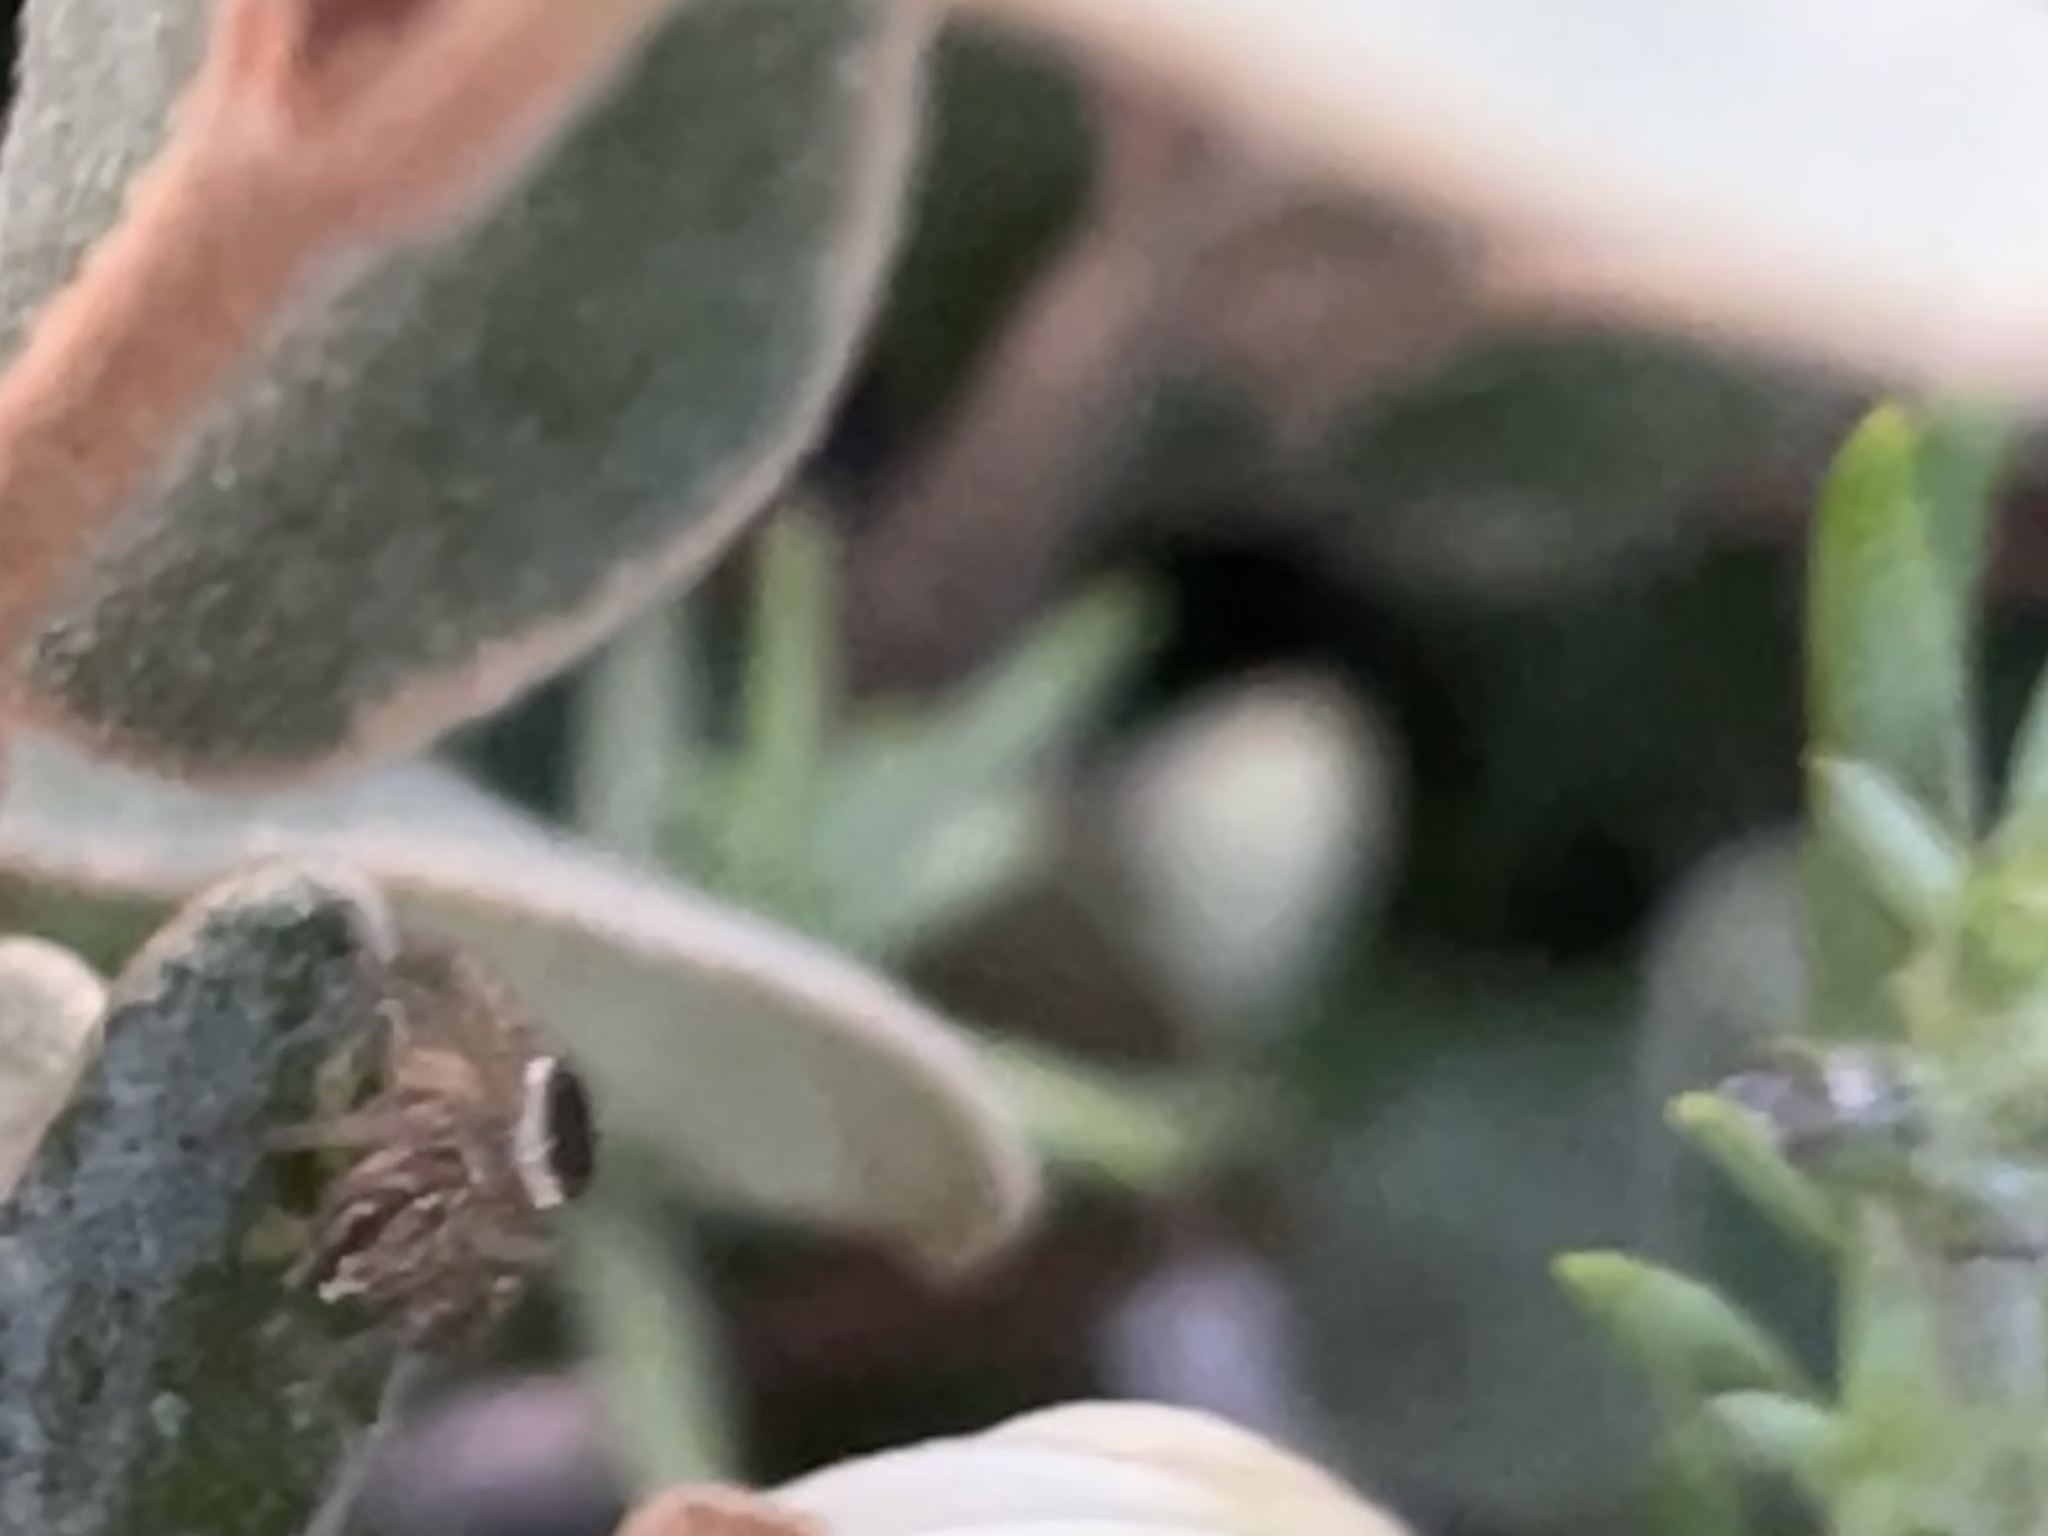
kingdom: Animalia
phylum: Arthropoda
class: Arachnida
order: Araneae
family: Salticidae
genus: Maratus
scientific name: Maratus griseus
